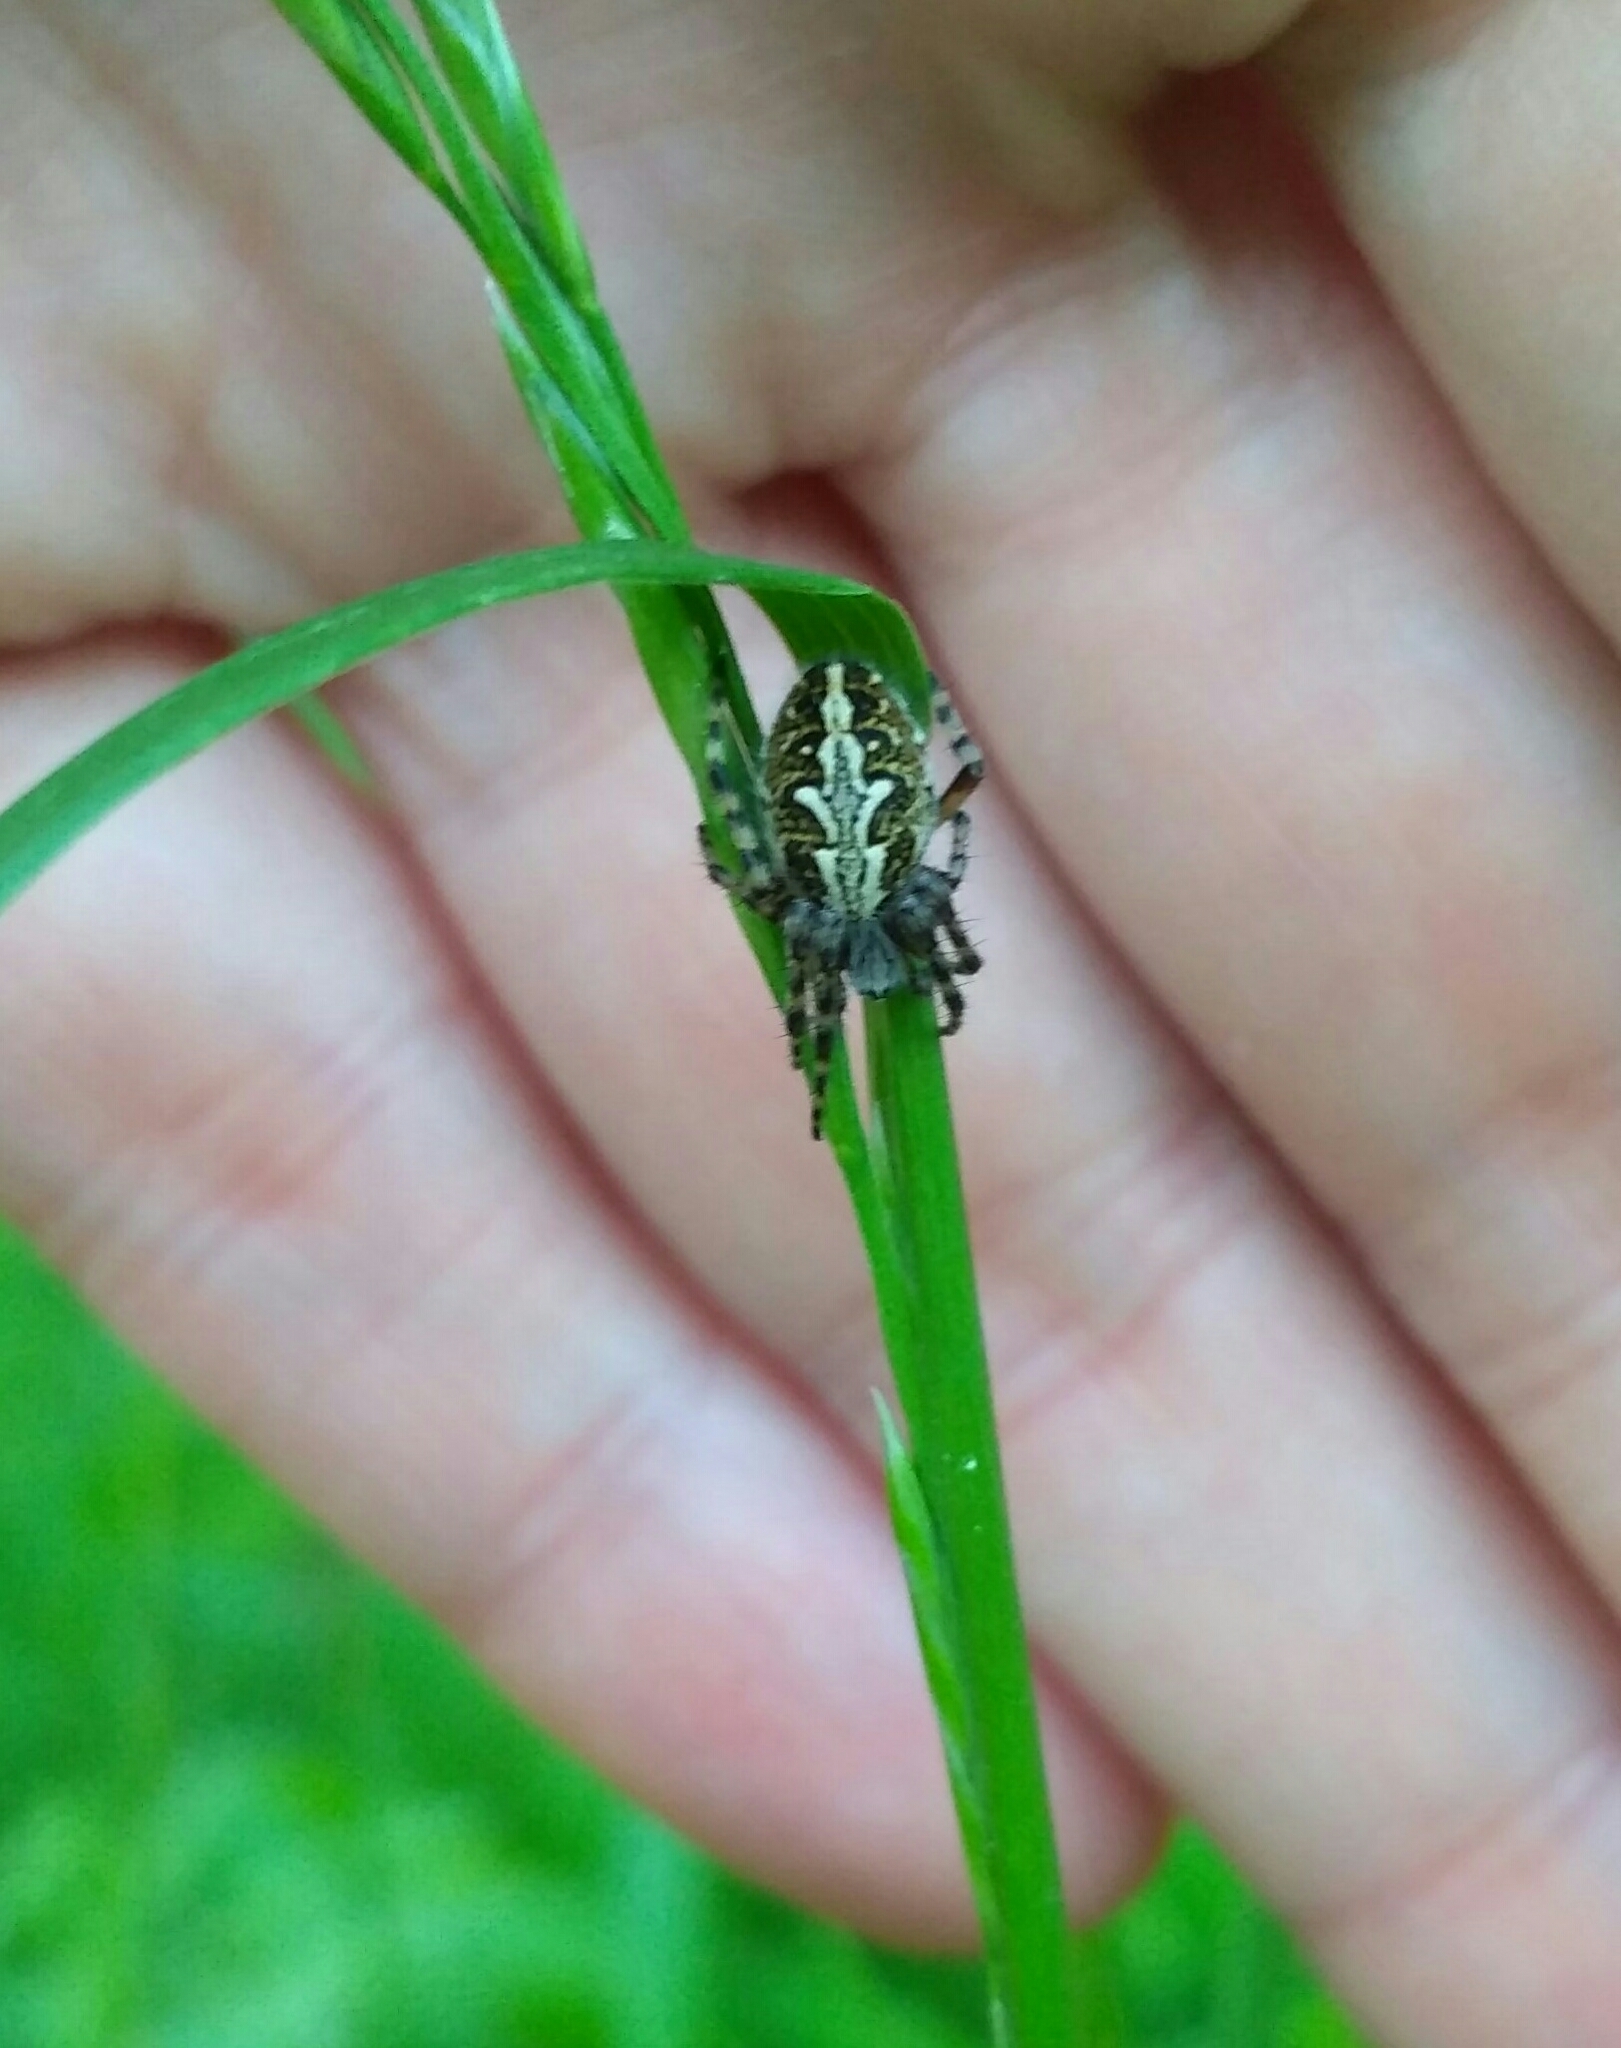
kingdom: Animalia
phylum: Arthropoda
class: Arachnida
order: Araneae
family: Araneidae
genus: Aculepeira
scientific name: Aculepeira ceropegia
